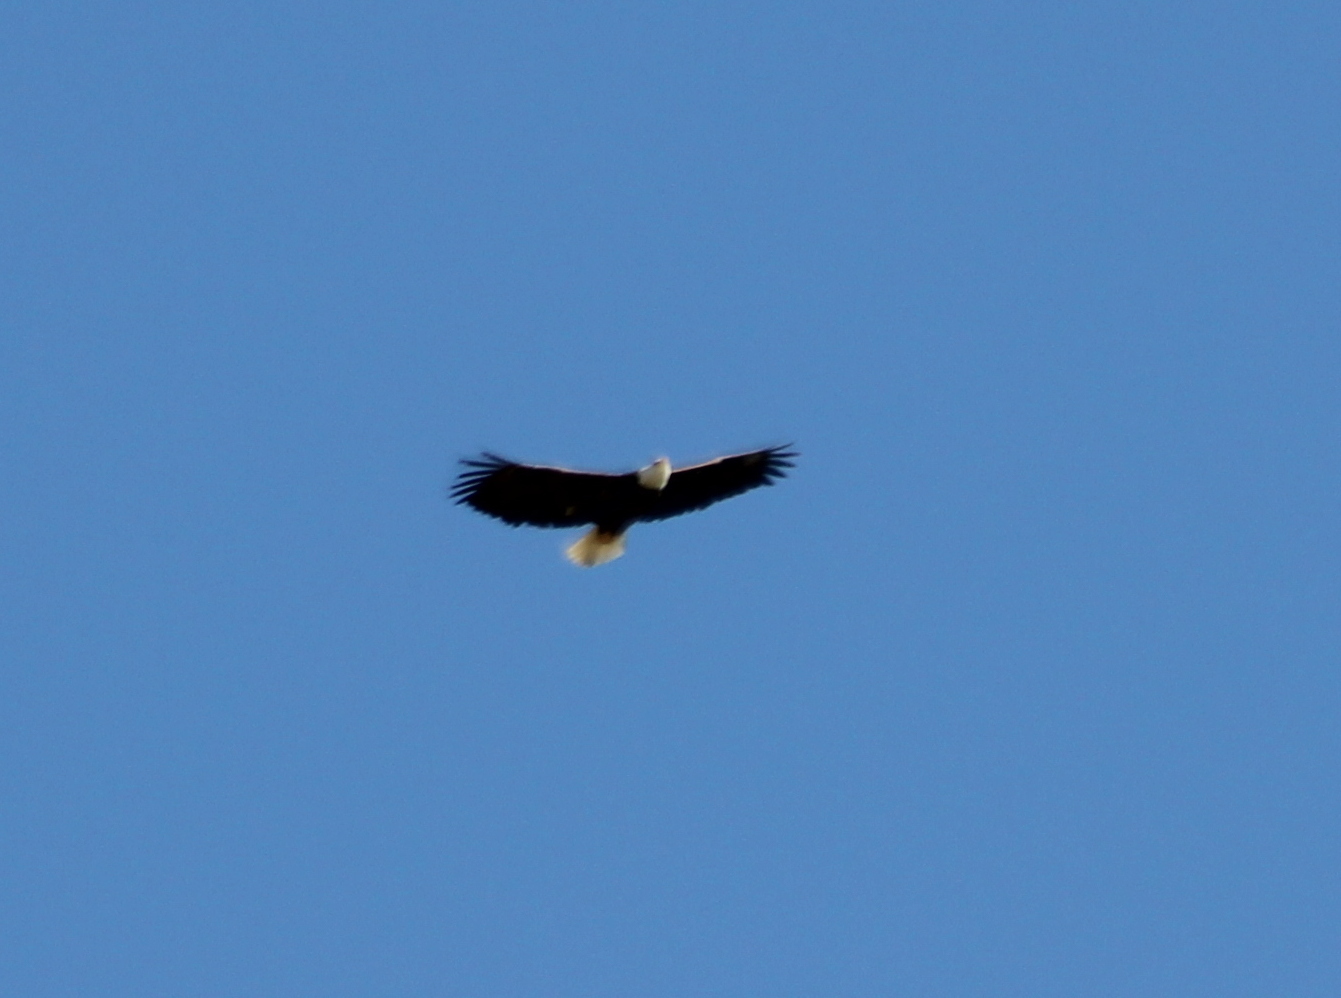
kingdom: Animalia
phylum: Chordata
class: Aves
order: Accipitriformes
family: Accipitridae
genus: Haliaeetus
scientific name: Haliaeetus leucocephalus
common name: Bald eagle
